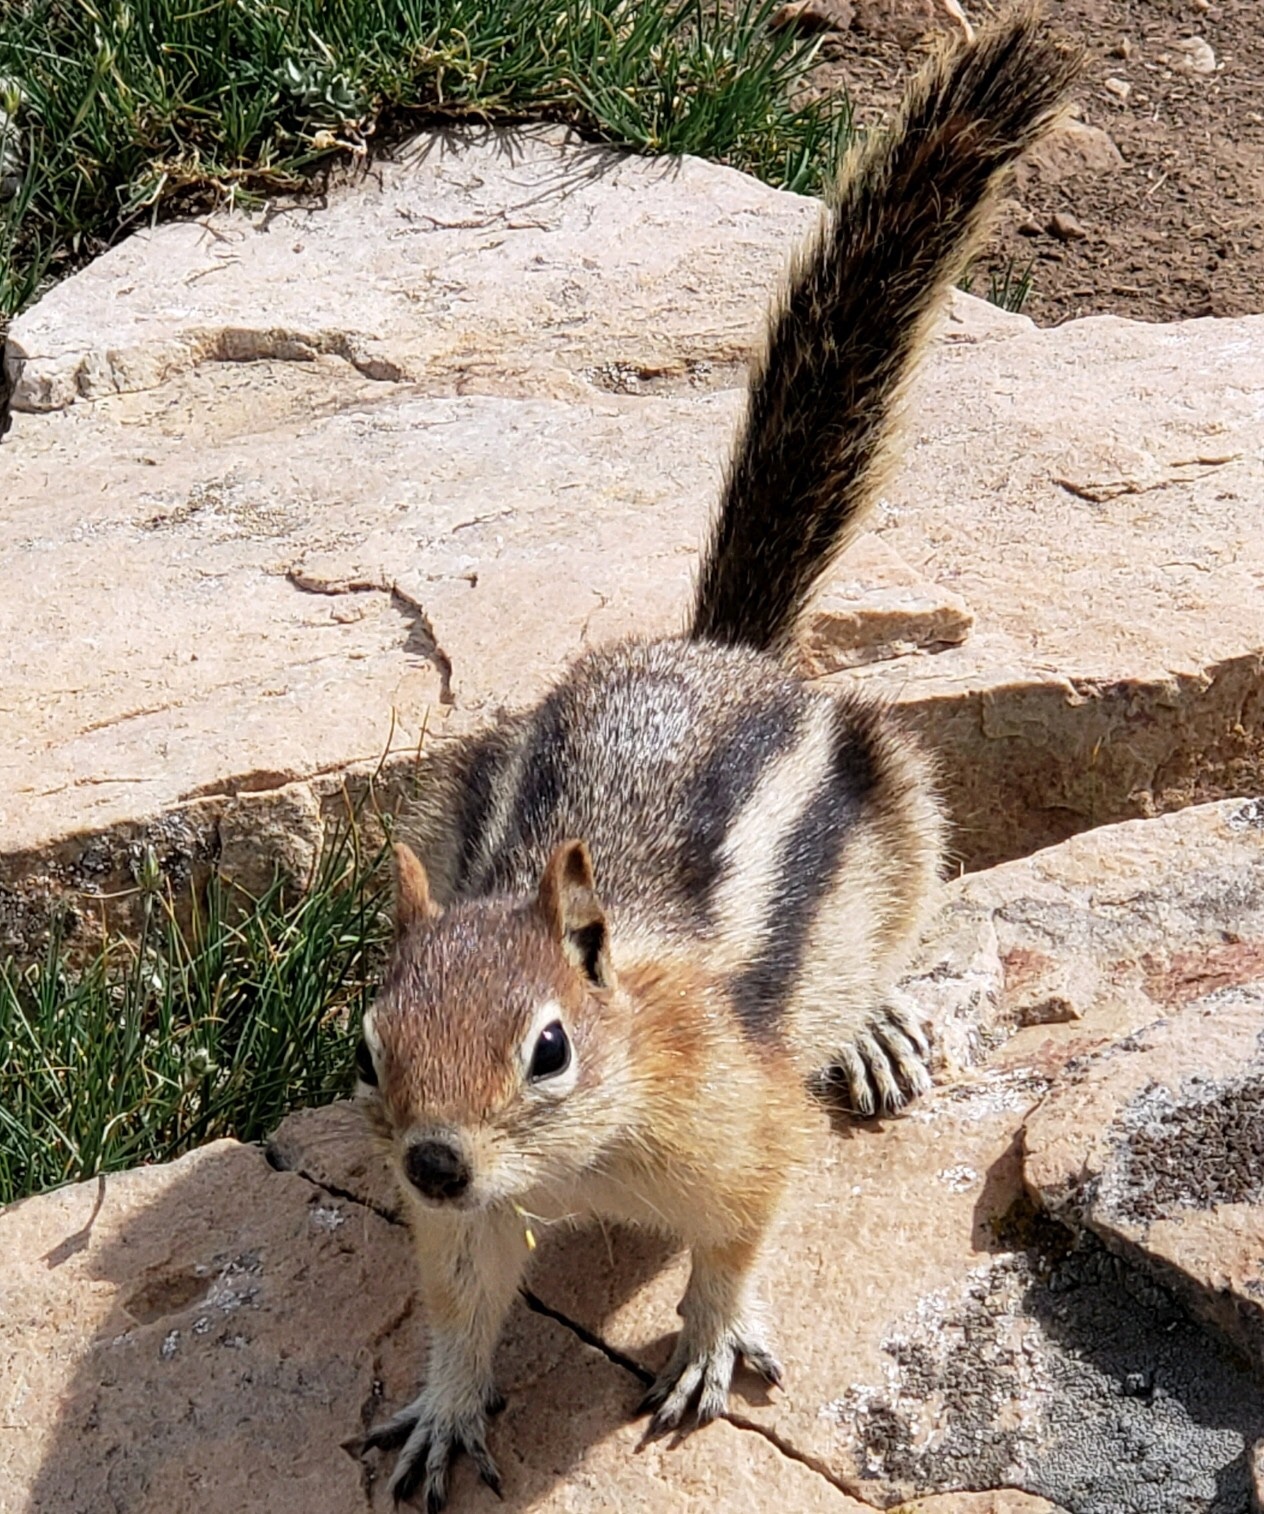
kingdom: Animalia
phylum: Chordata
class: Mammalia
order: Rodentia
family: Sciuridae
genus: Callospermophilus
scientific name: Callospermophilus lateralis
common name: Golden-mantled ground squirrel
